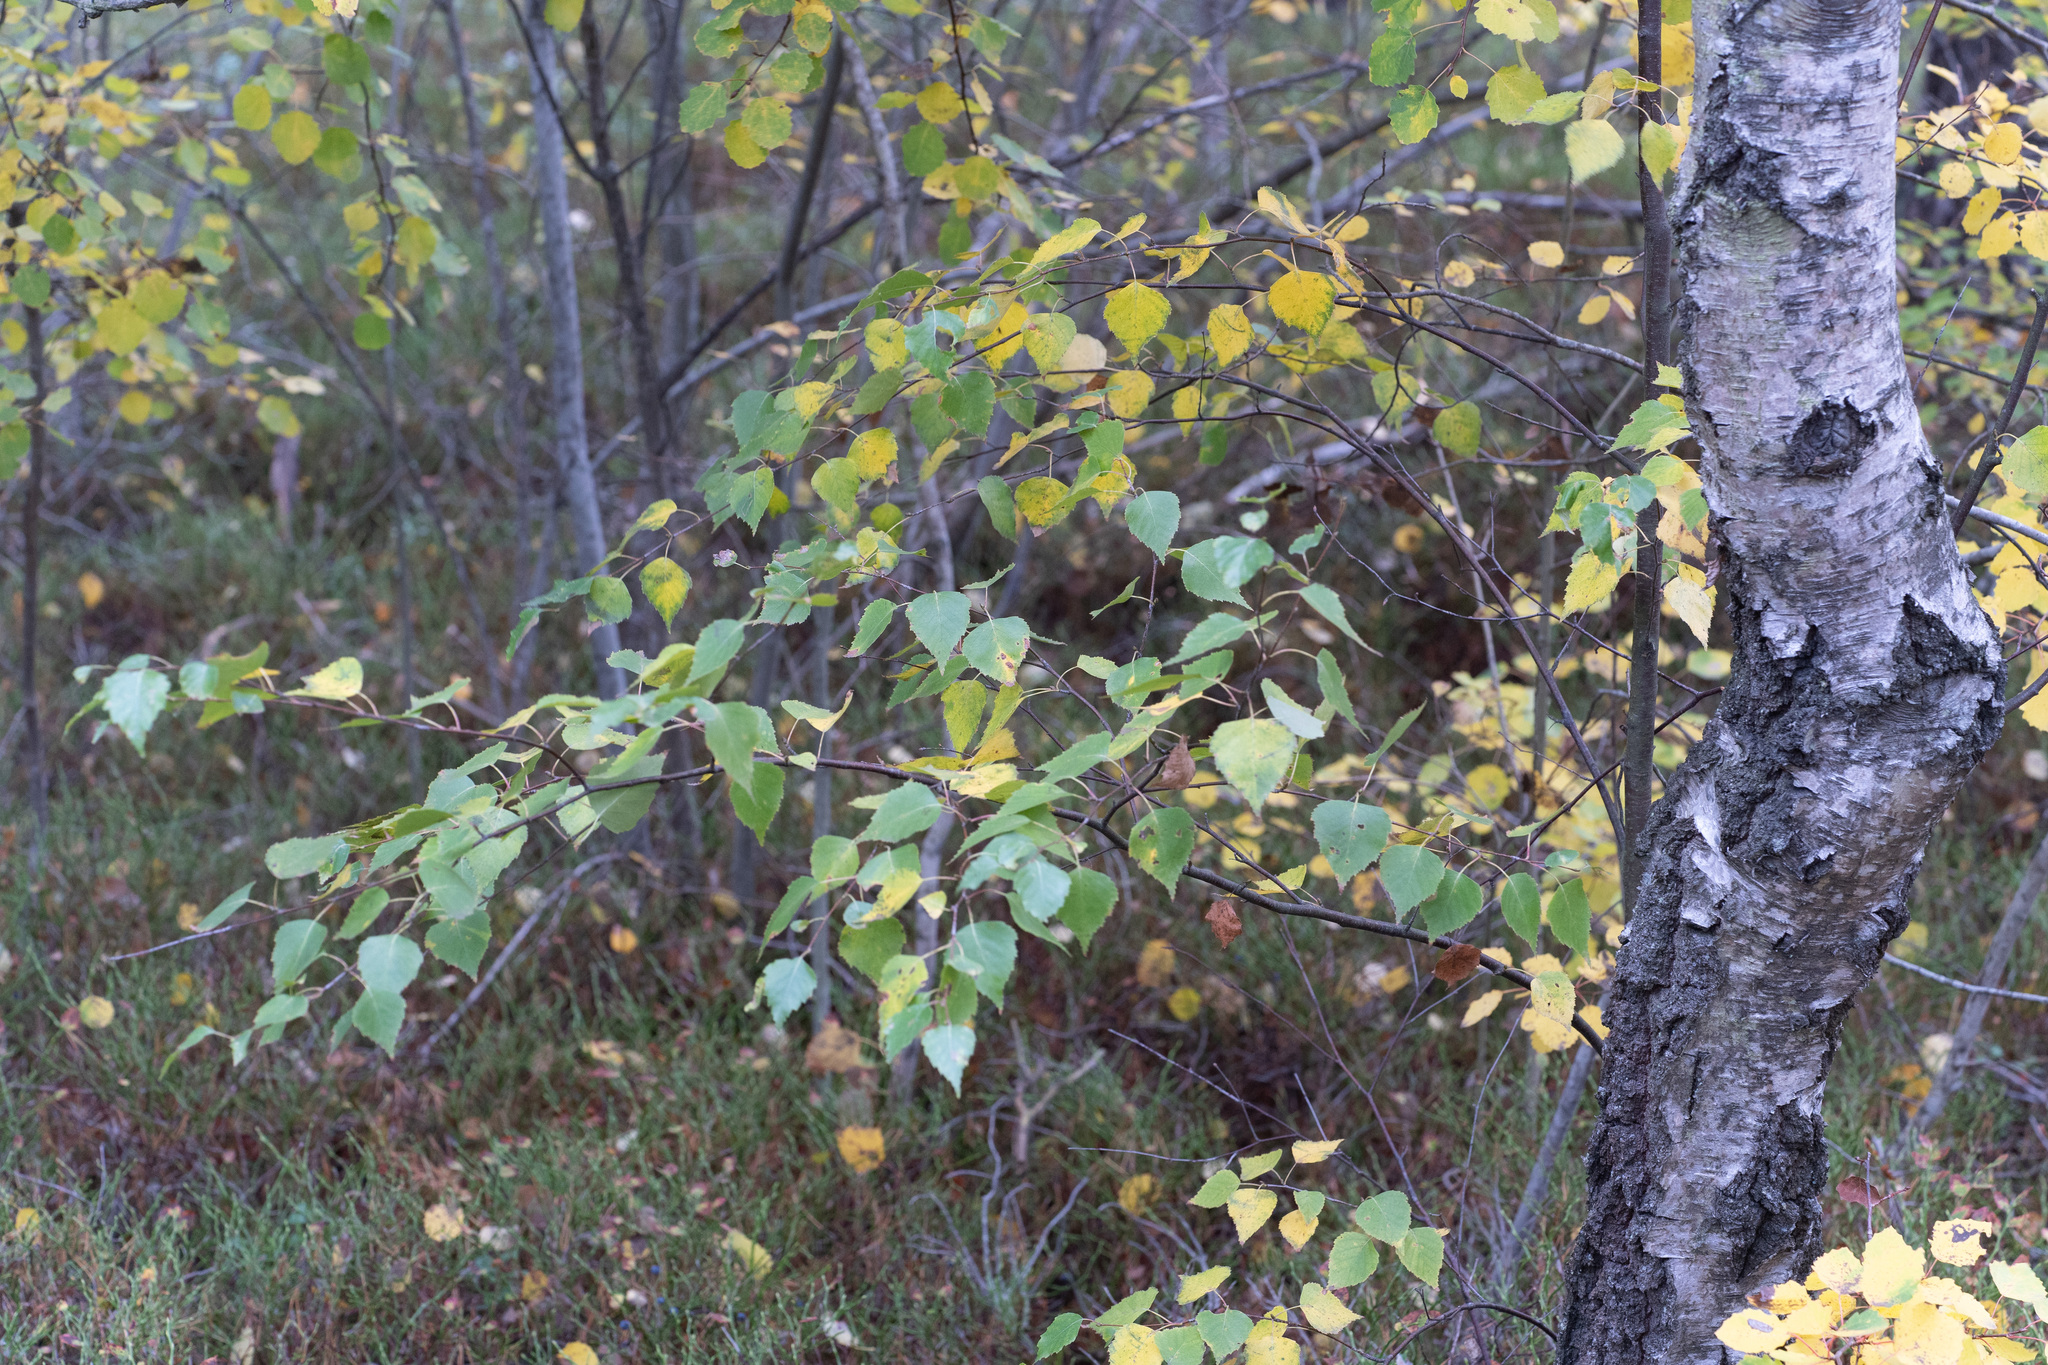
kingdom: Plantae
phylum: Tracheophyta
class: Magnoliopsida
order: Fagales
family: Betulaceae
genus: Betula
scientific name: Betula pendula
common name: Silver birch
